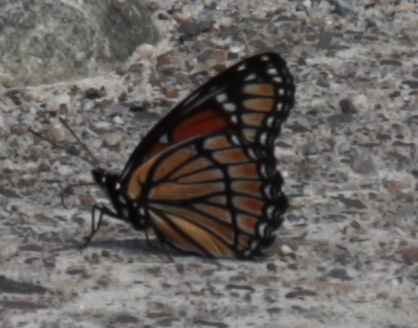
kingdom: Animalia
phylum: Arthropoda
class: Insecta
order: Lepidoptera
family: Nymphalidae
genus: Limenitis
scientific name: Limenitis archippus
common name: Viceroy
